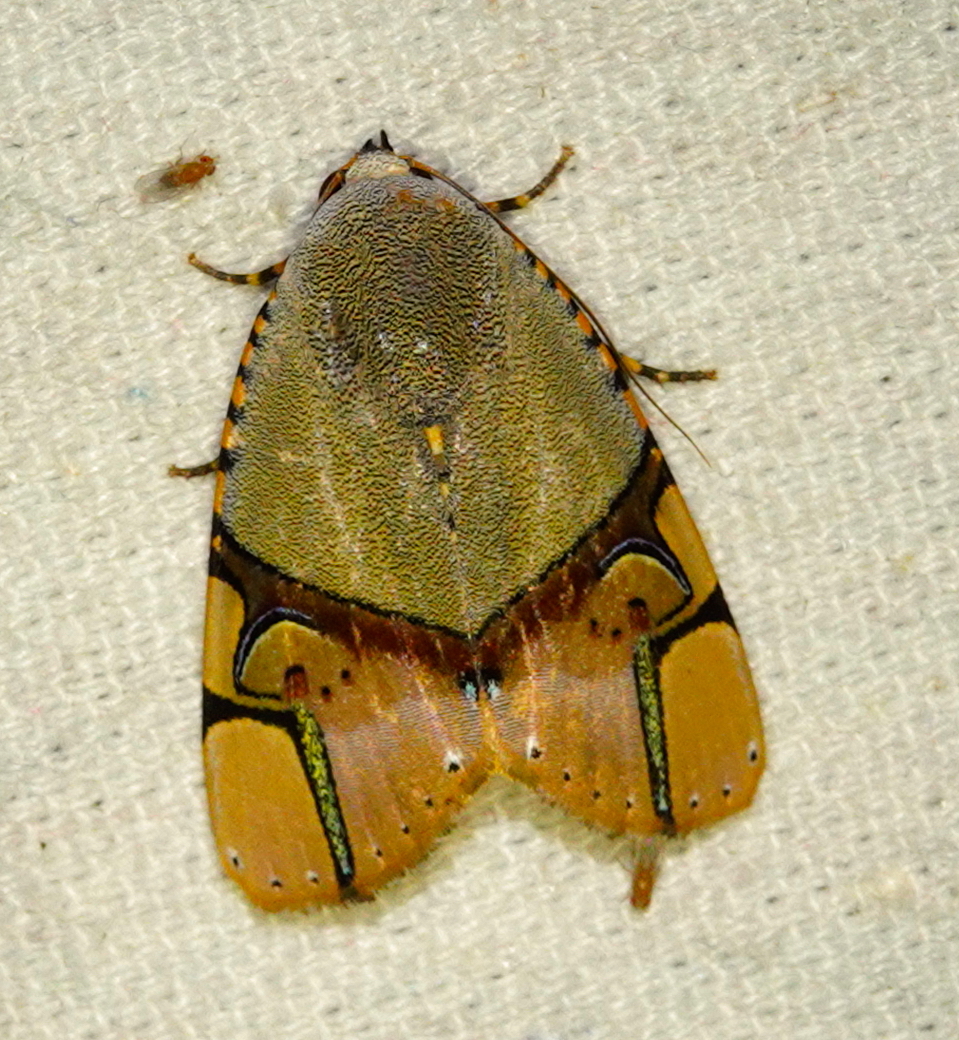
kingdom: Animalia
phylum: Arthropoda
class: Insecta
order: Lepidoptera
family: Erebidae
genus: Ramadasa
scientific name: Ramadasa pavo
